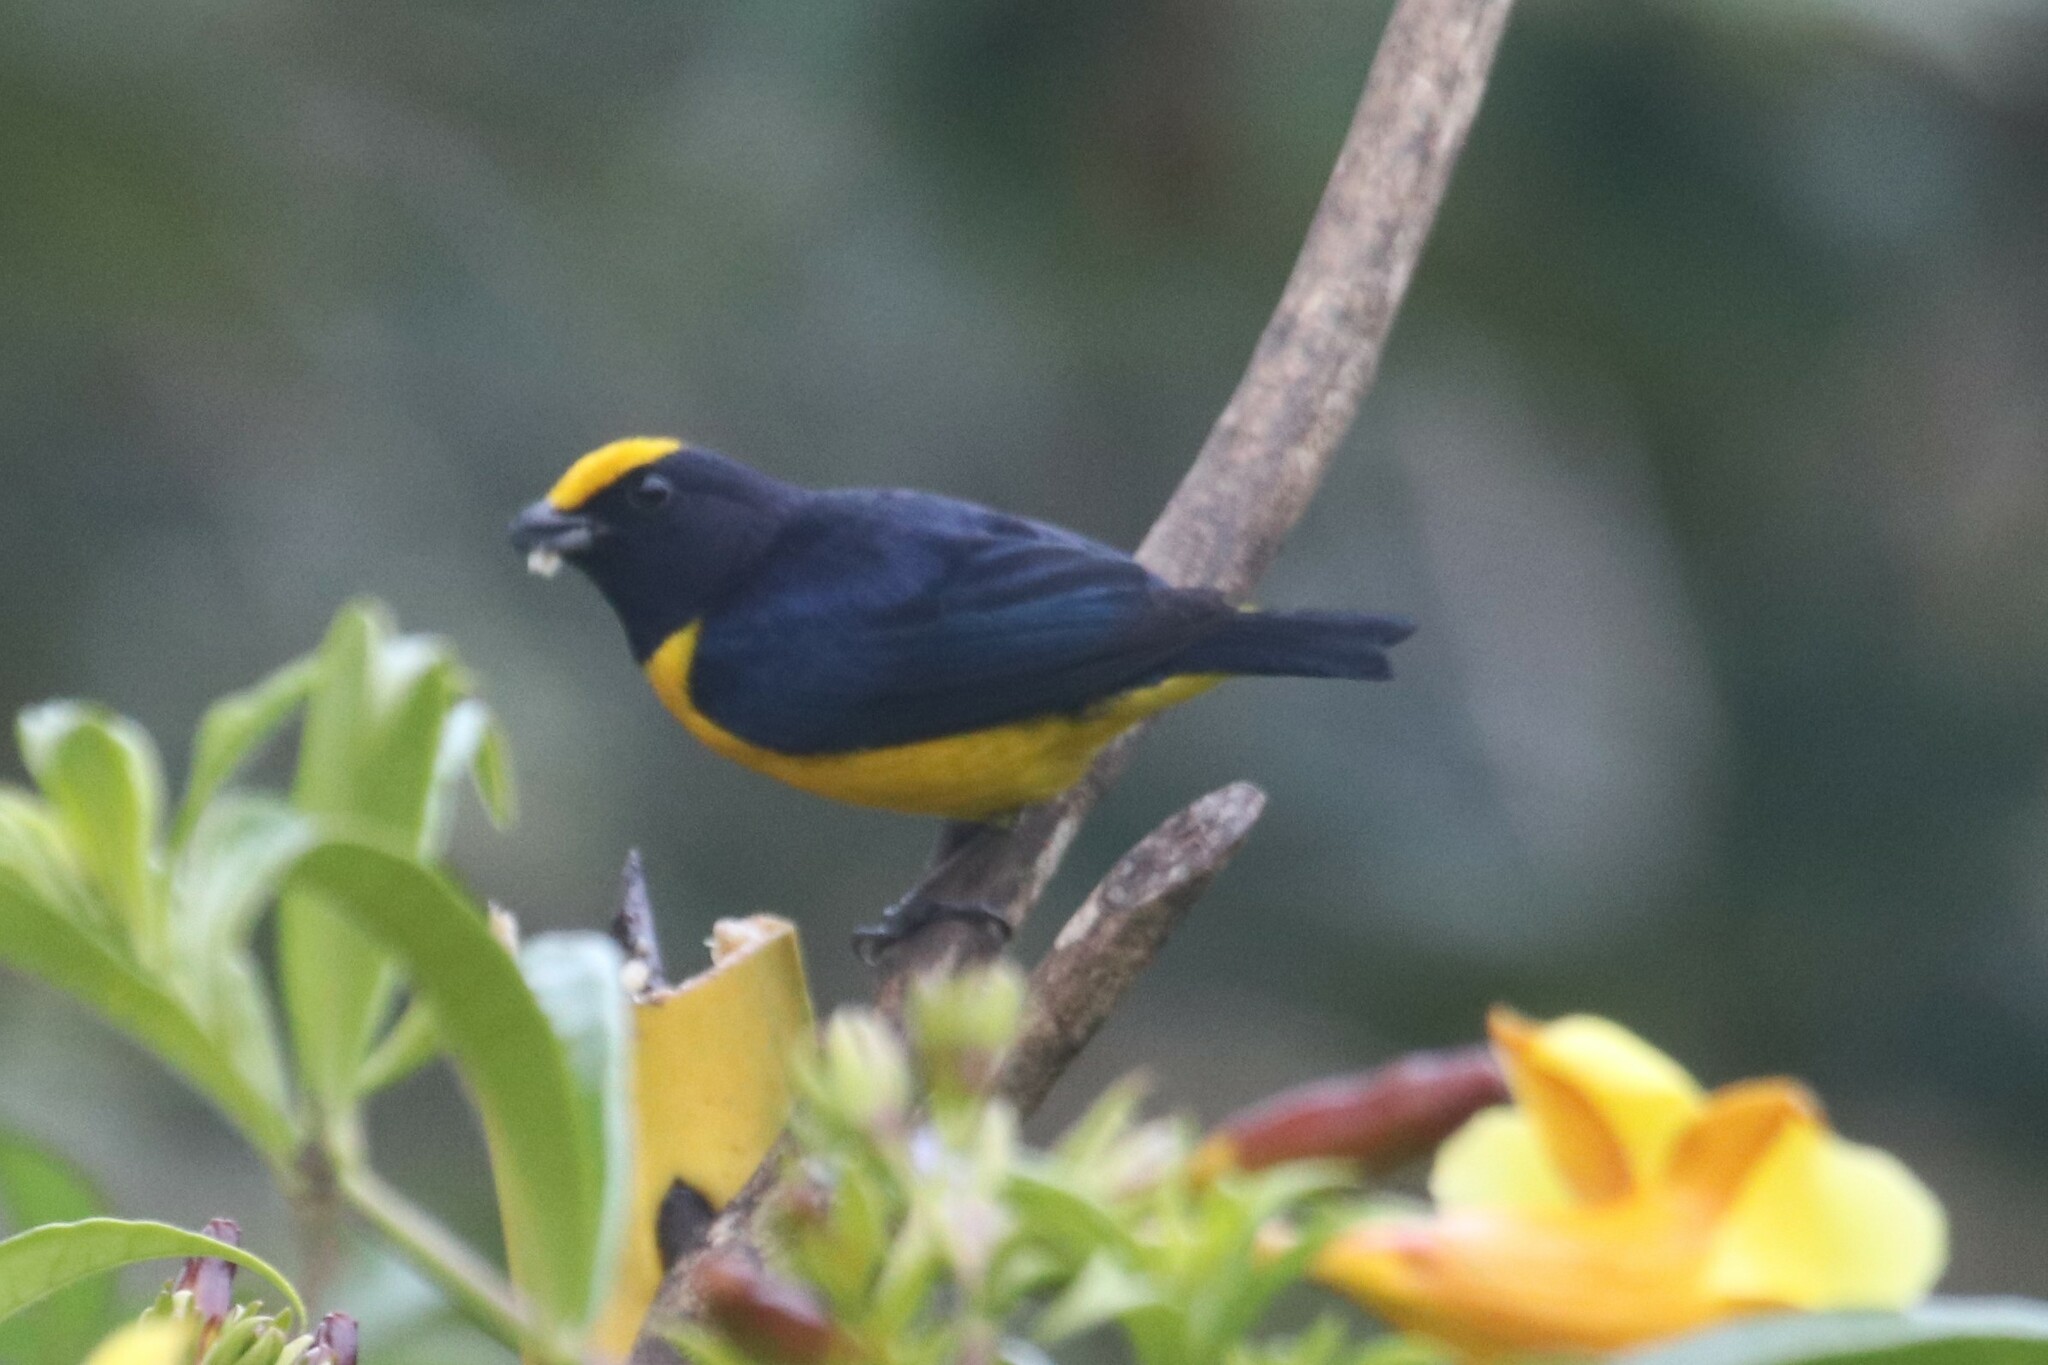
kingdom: Animalia
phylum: Chordata
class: Aves
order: Passeriformes
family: Fringillidae
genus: Euphonia
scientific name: Euphonia xanthogaster
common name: Orange-bellied euphonia
